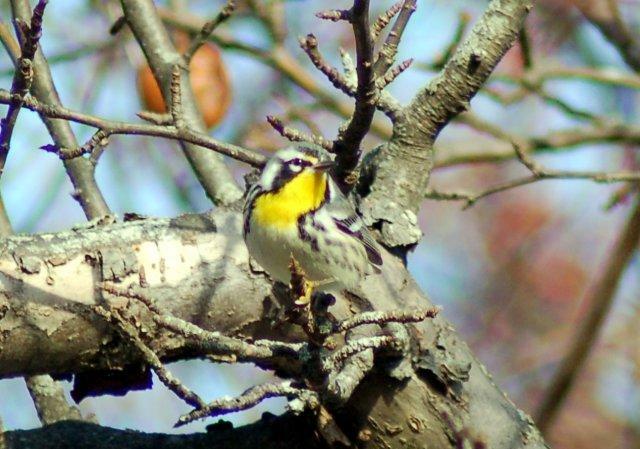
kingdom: Animalia
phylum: Chordata
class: Aves
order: Passeriformes
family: Parulidae
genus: Setophaga
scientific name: Setophaga dominica
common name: Yellow-throated warbler
